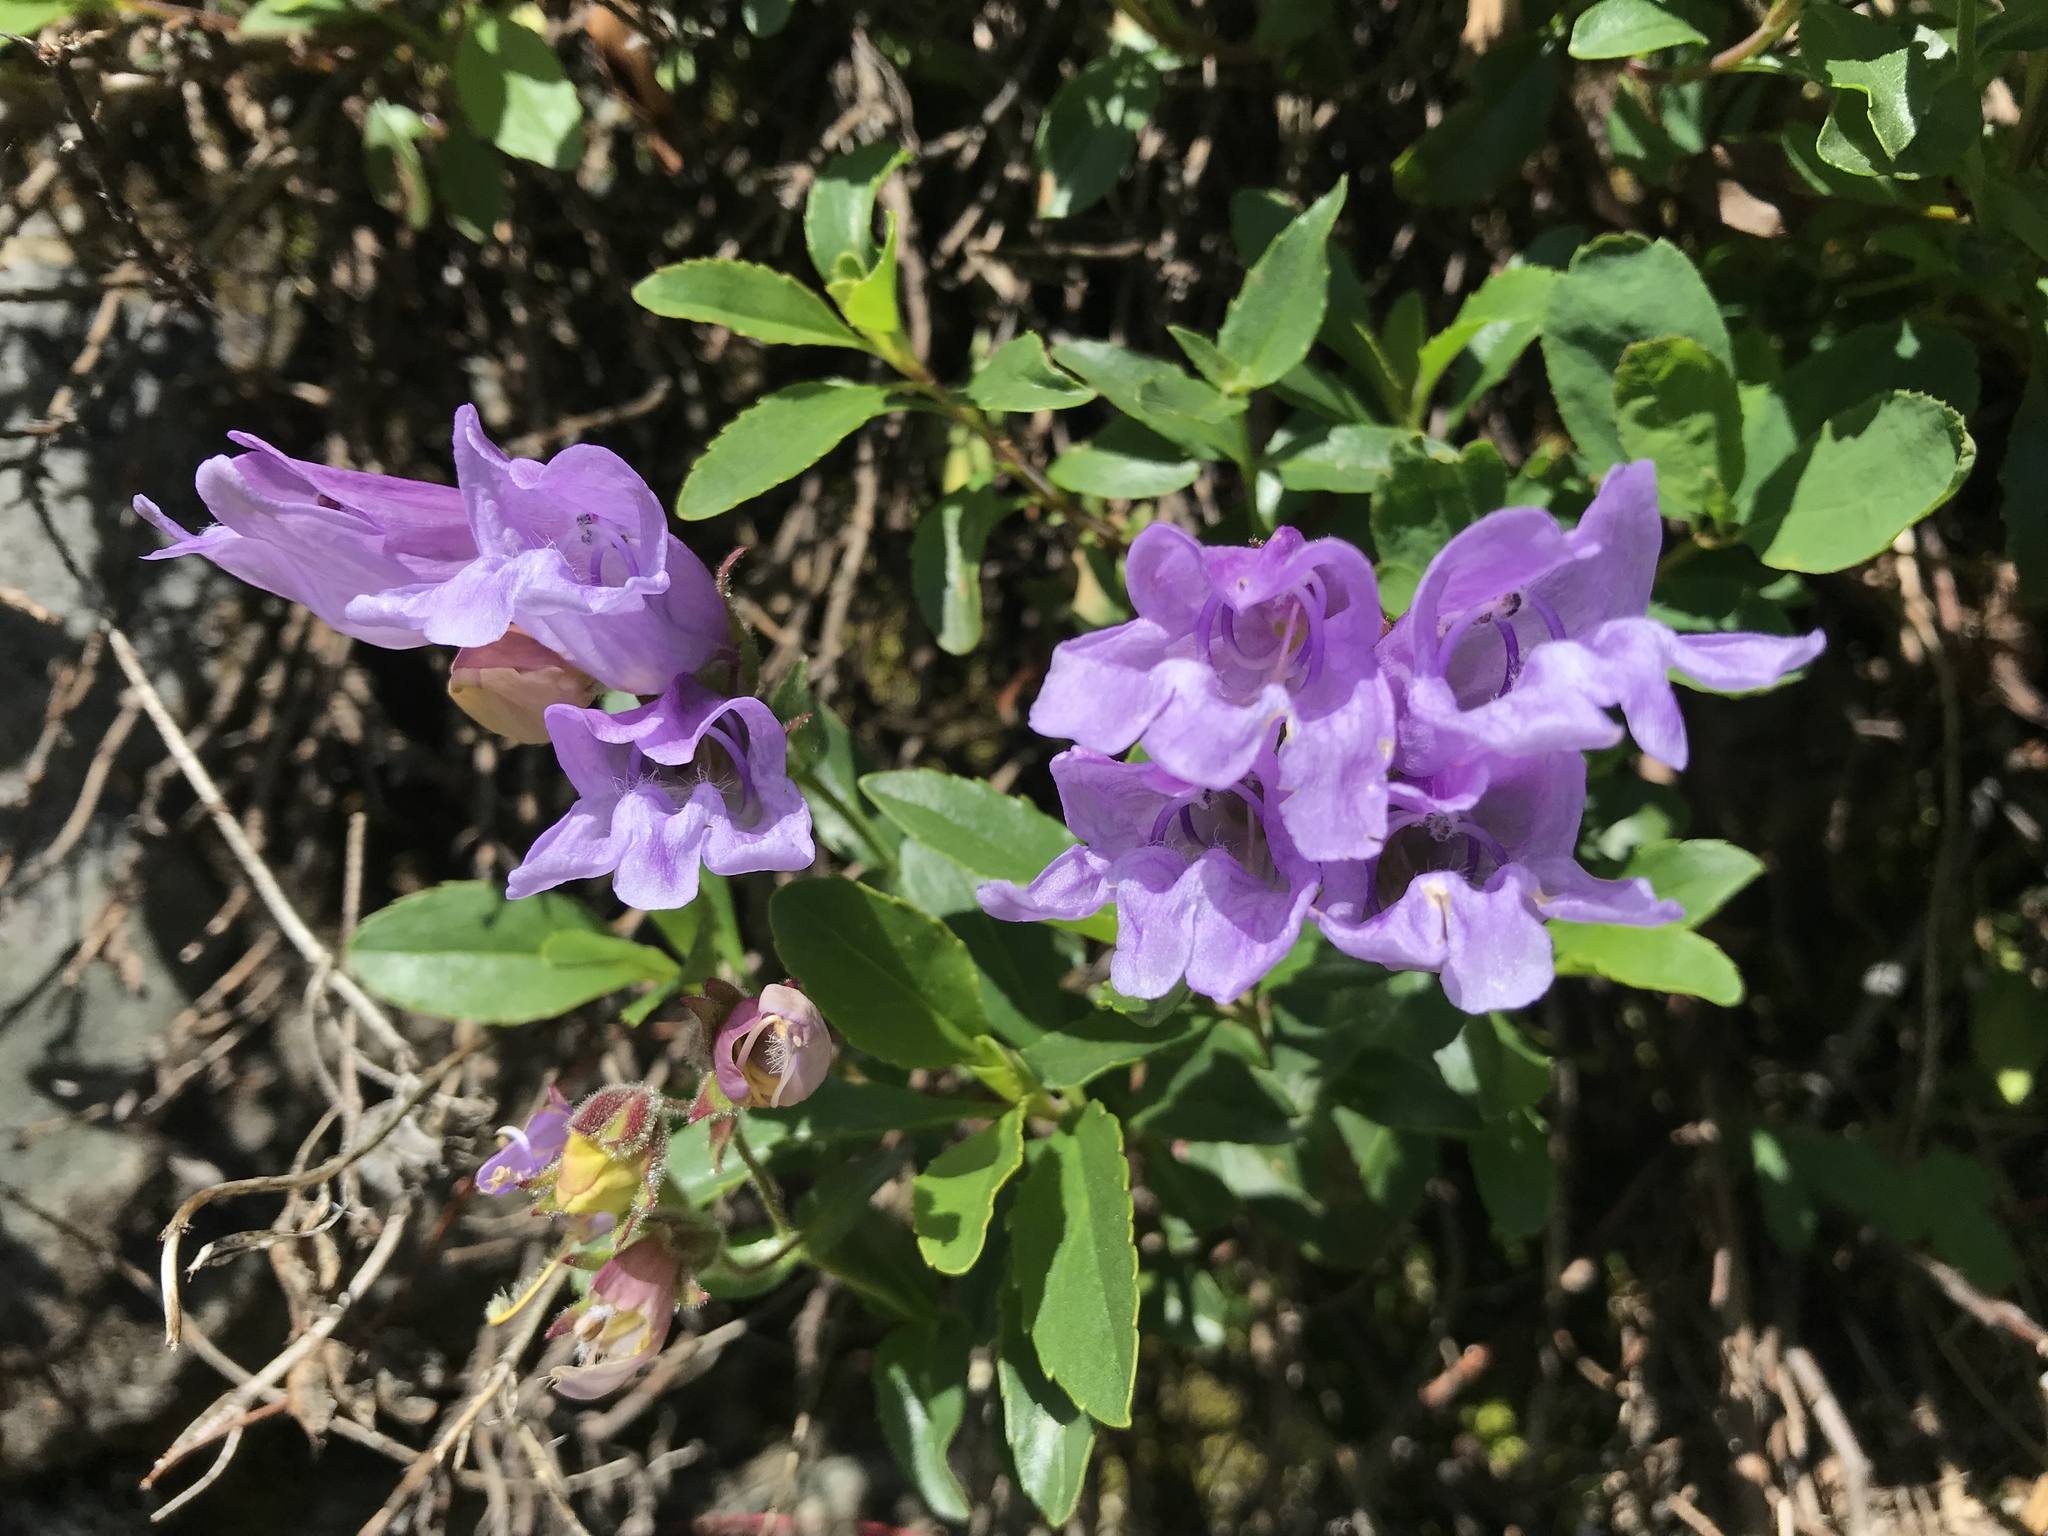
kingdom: Plantae
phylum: Tracheophyta
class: Magnoliopsida
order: Lamiales
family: Plantaginaceae
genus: Penstemon
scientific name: Penstemon ellipticus
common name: Alpine beardtongue
